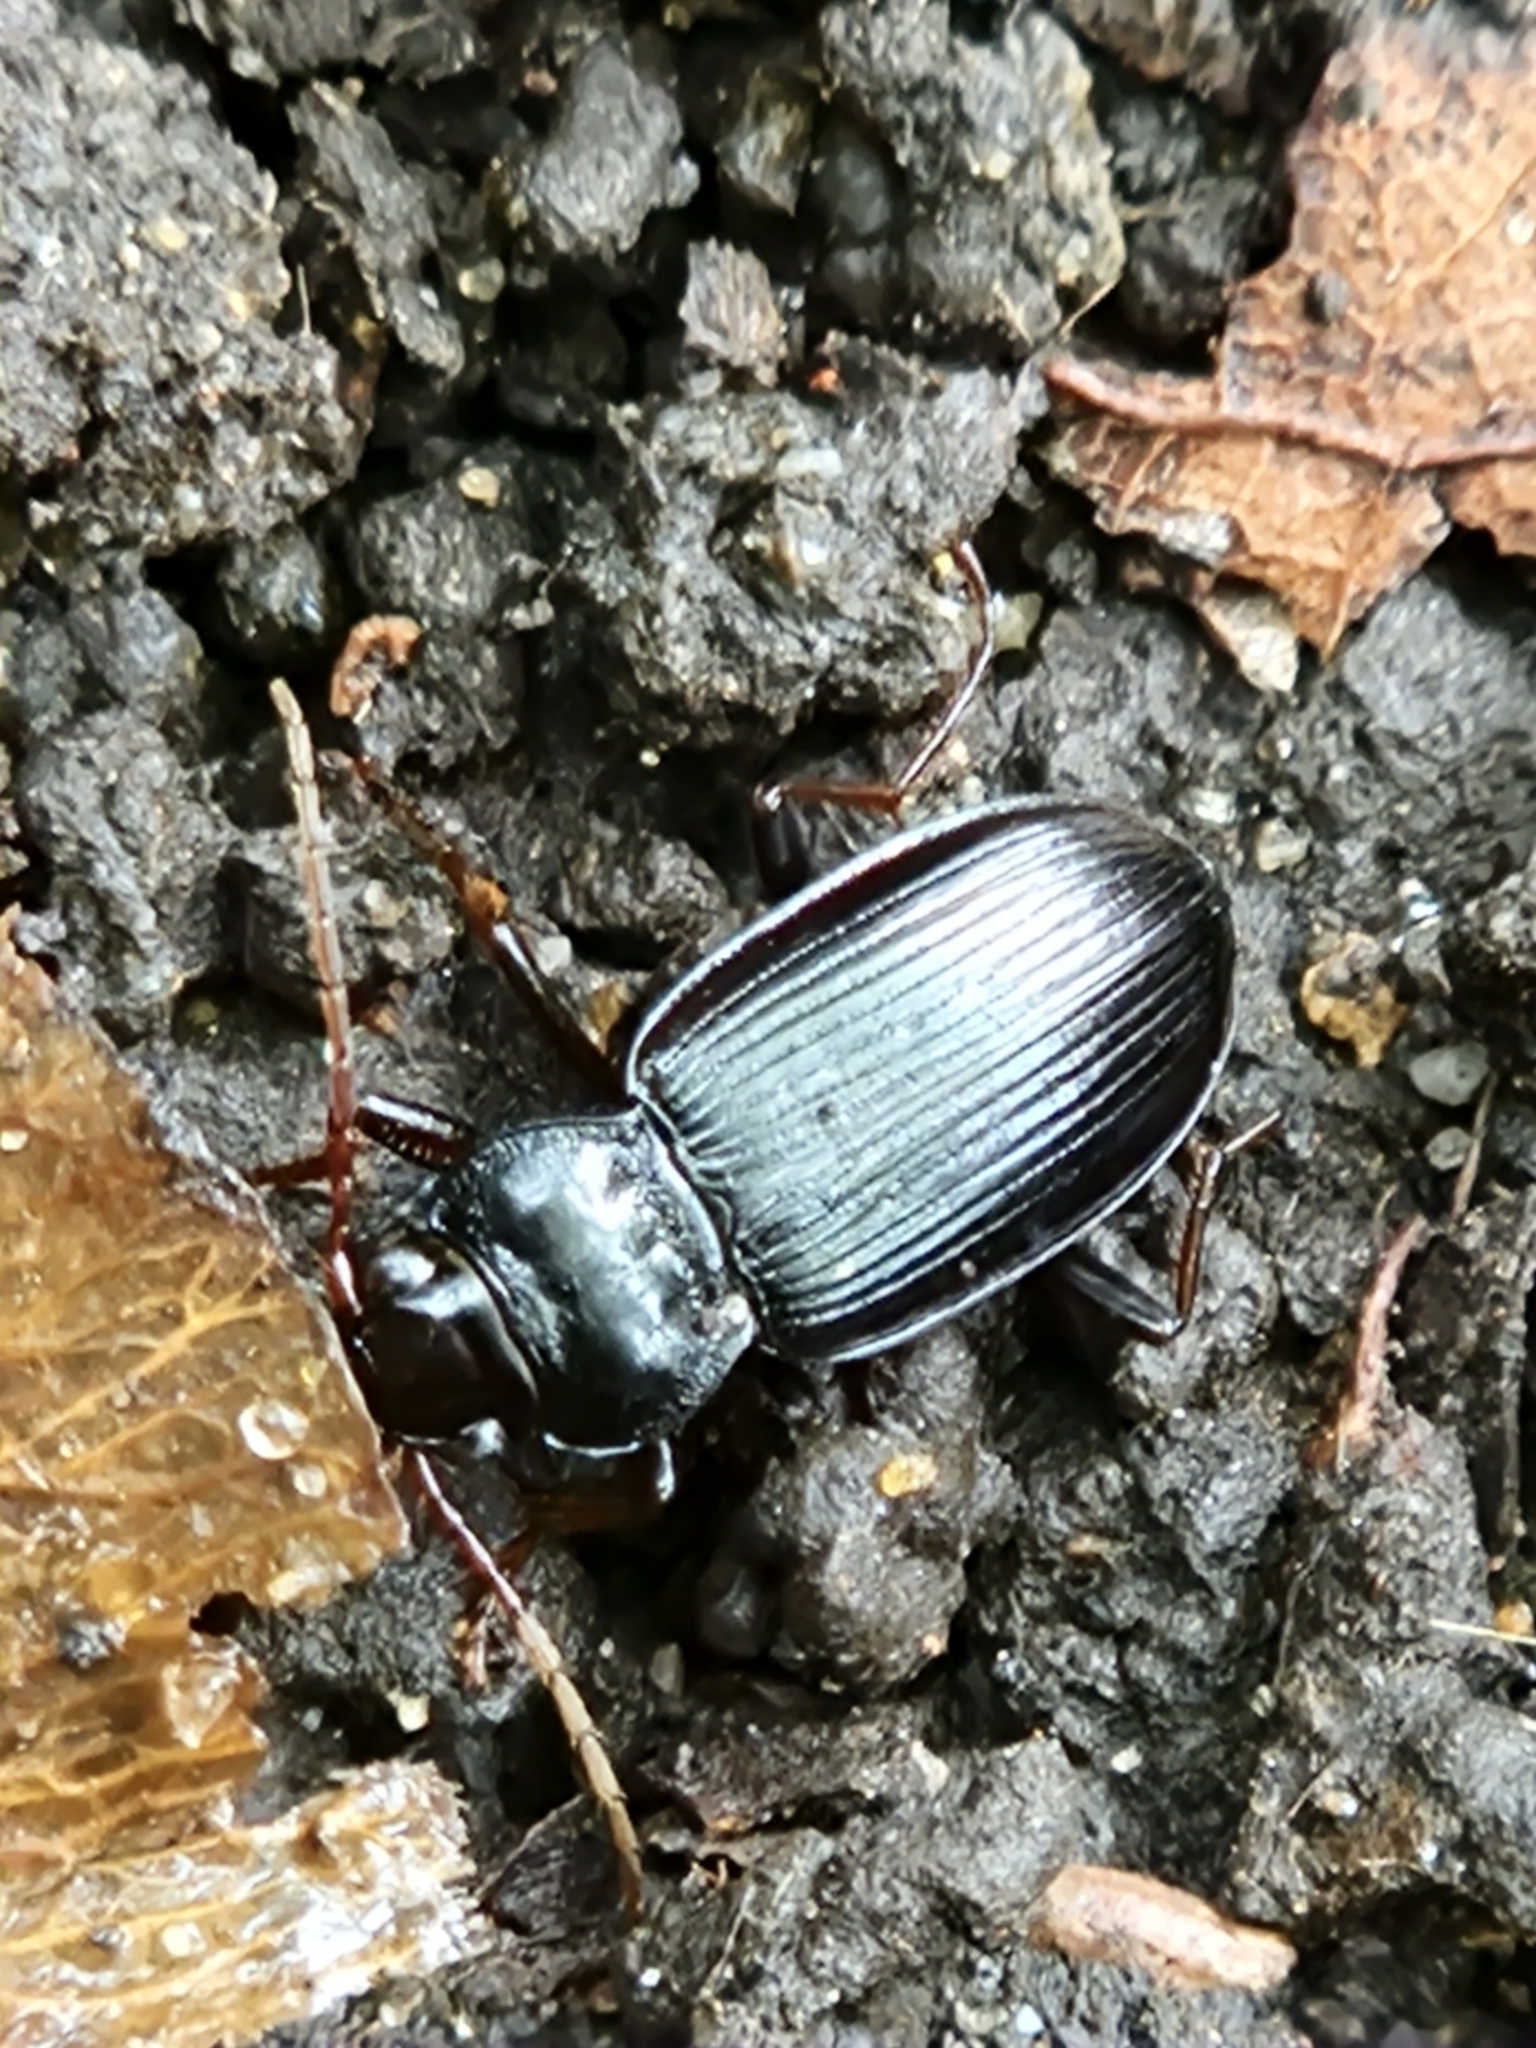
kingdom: Animalia
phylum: Arthropoda
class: Insecta
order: Coleoptera
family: Carabidae
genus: Nebria
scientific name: Nebria brevicollis
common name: Short-necked gazelle beetle
